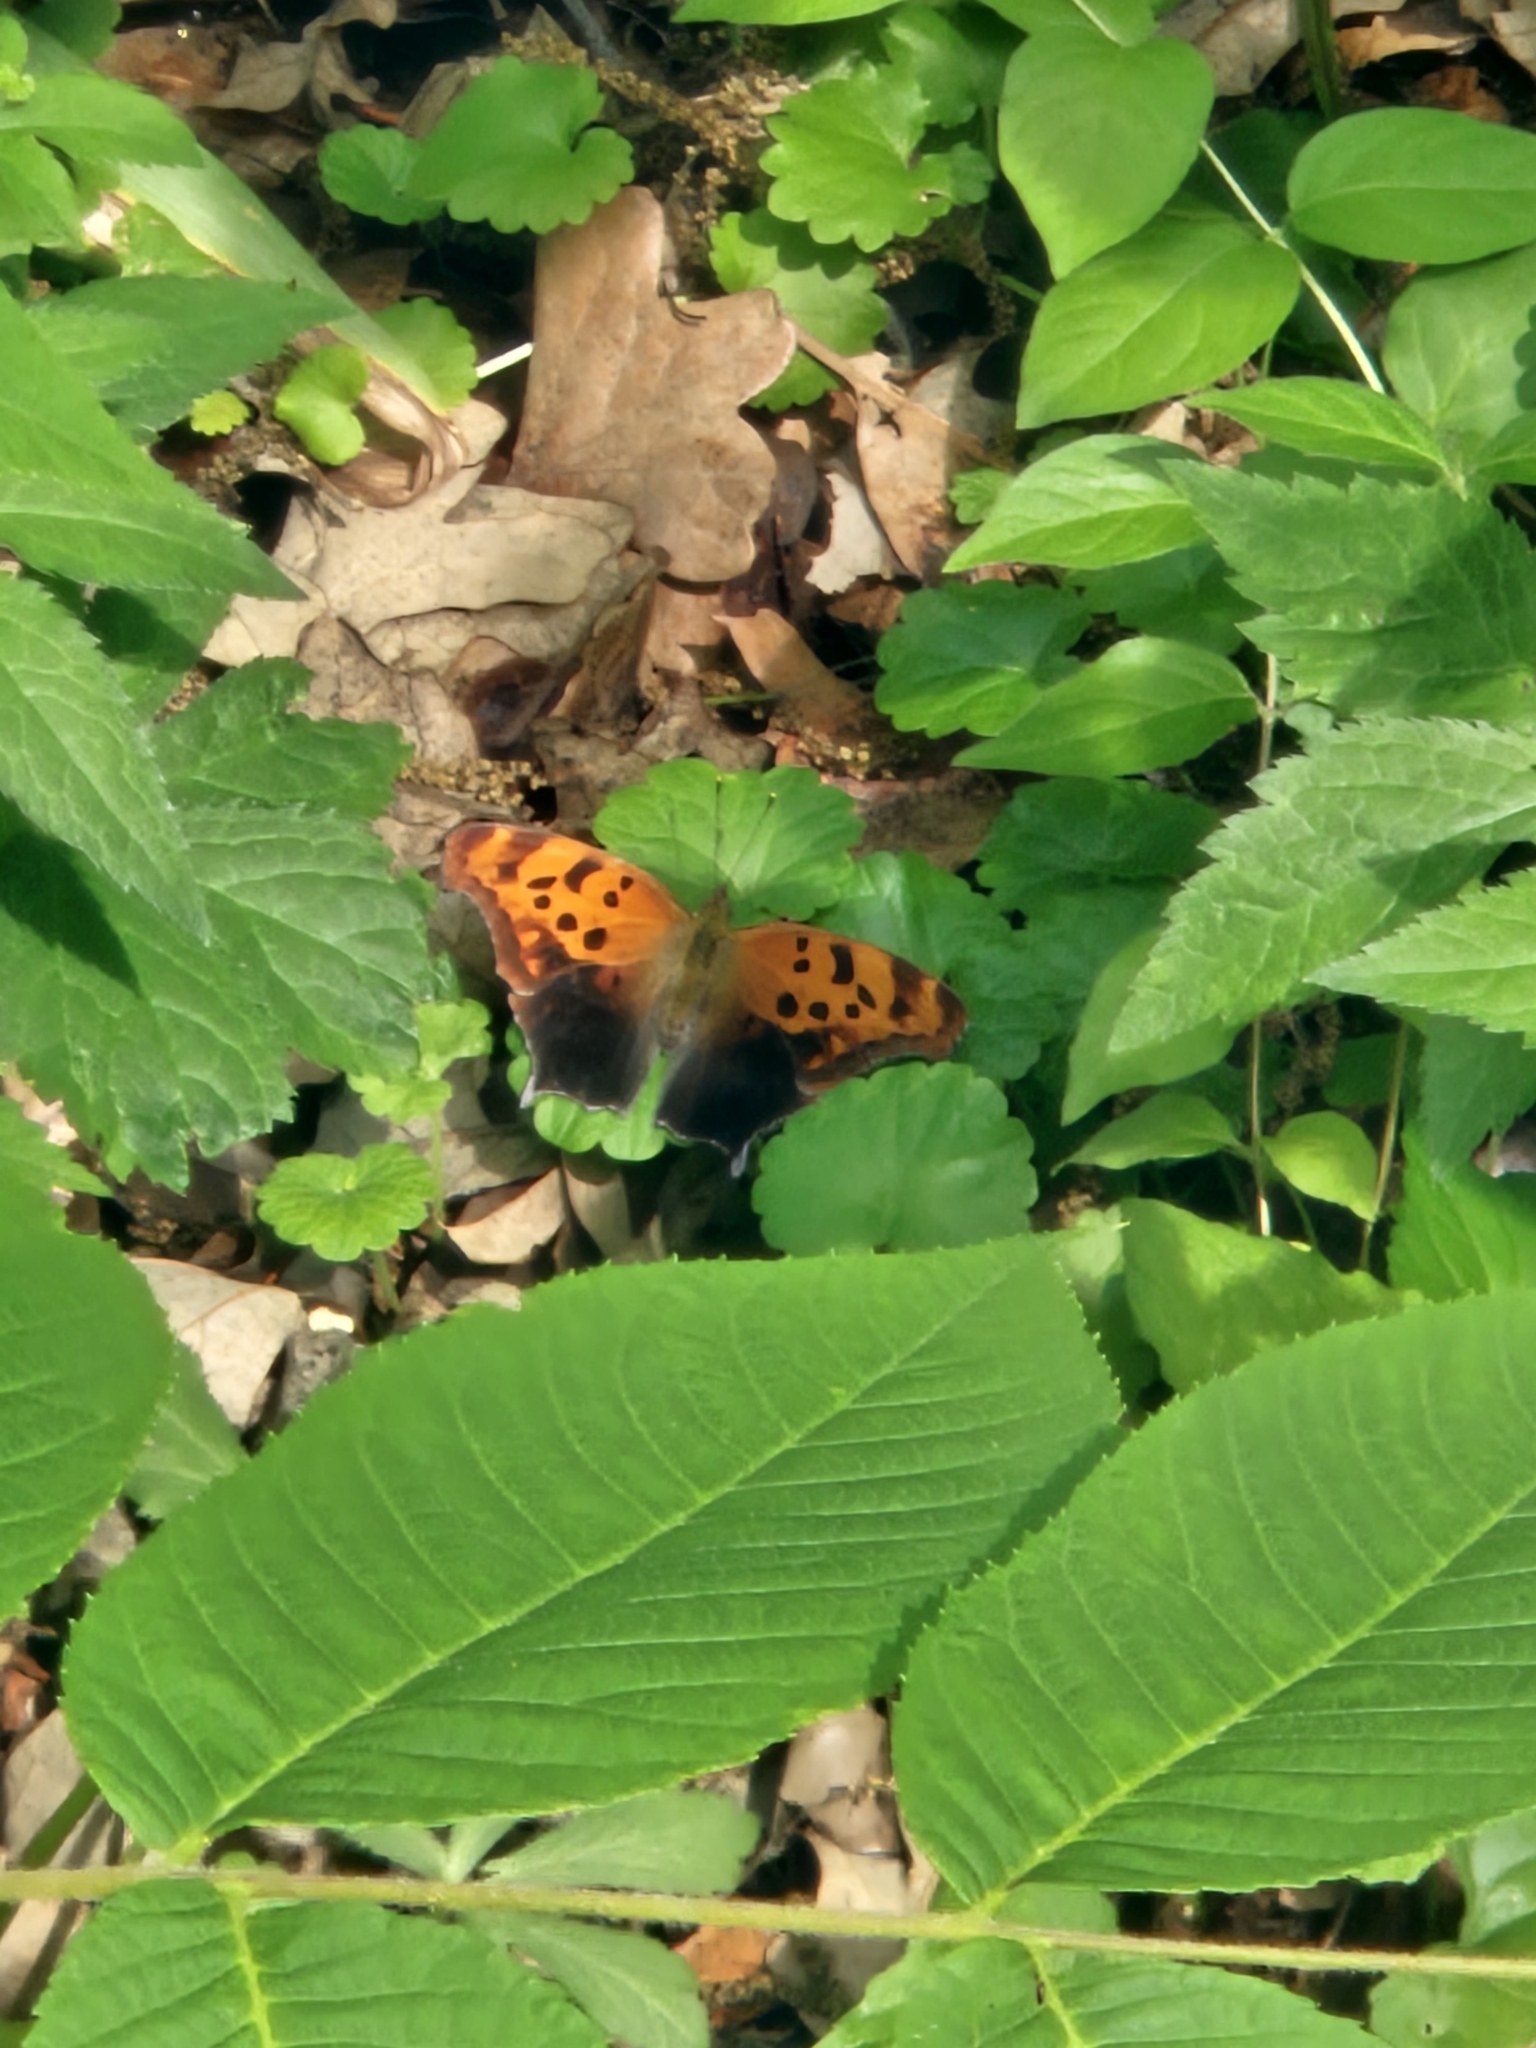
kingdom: Animalia
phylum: Arthropoda
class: Insecta
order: Lepidoptera
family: Nymphalidae
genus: Polygonia
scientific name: Polygonia interrogationis
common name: Question mark
